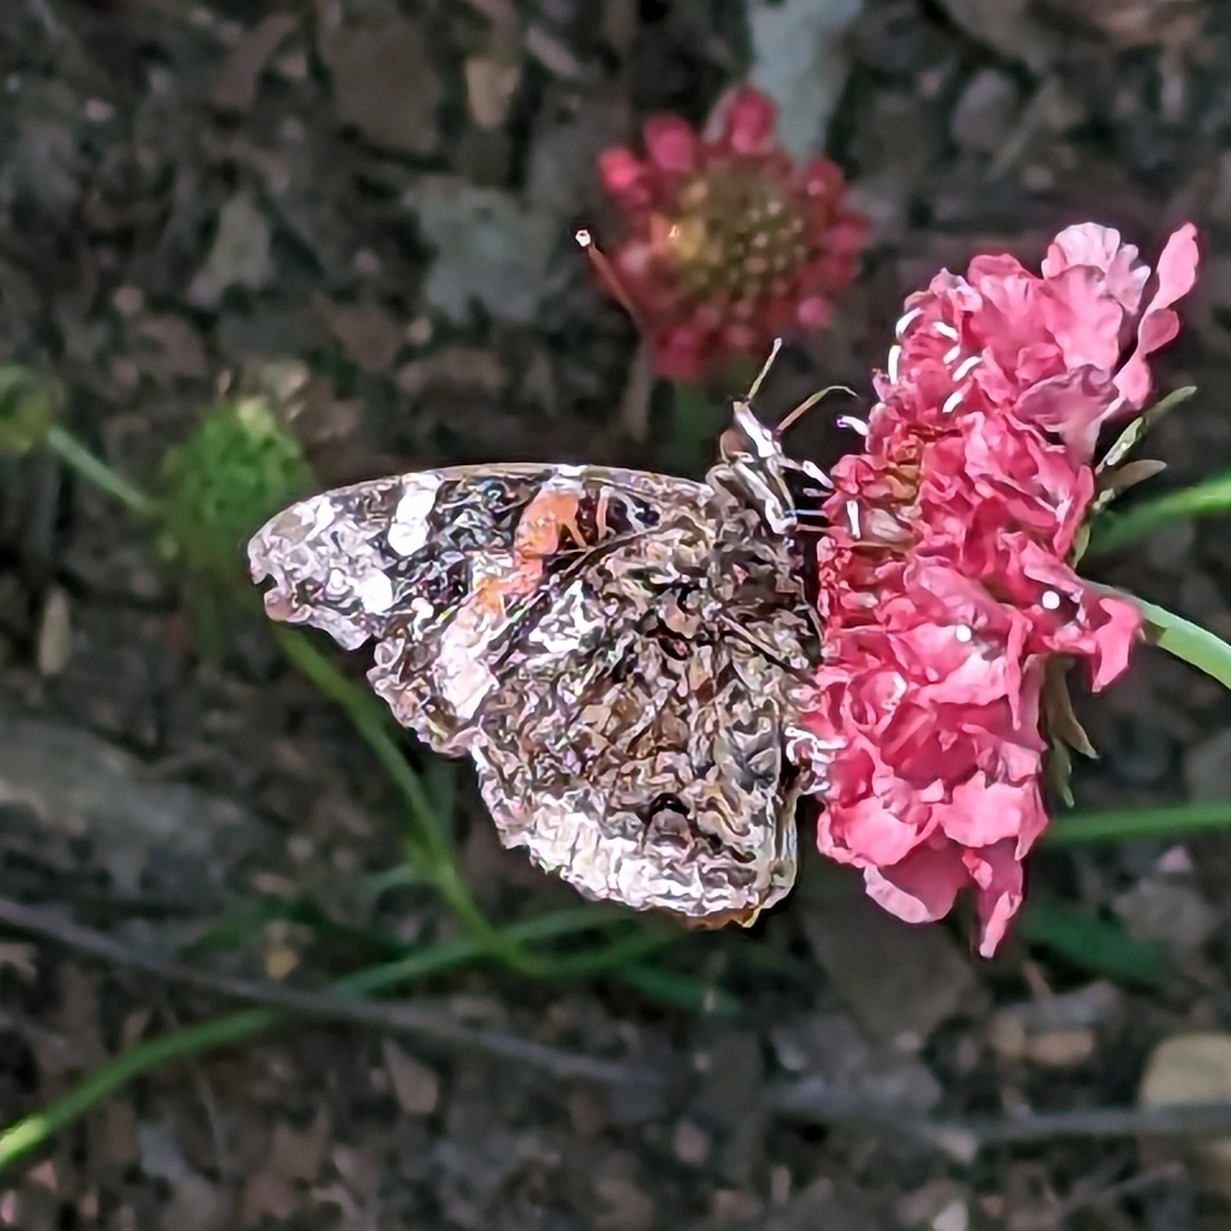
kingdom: Animalia
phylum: Arthropoda
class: Insecta
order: Lepidoptera
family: Nymphalidae
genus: Vanessa
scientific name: Vanessa atalanta
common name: Red admiral
